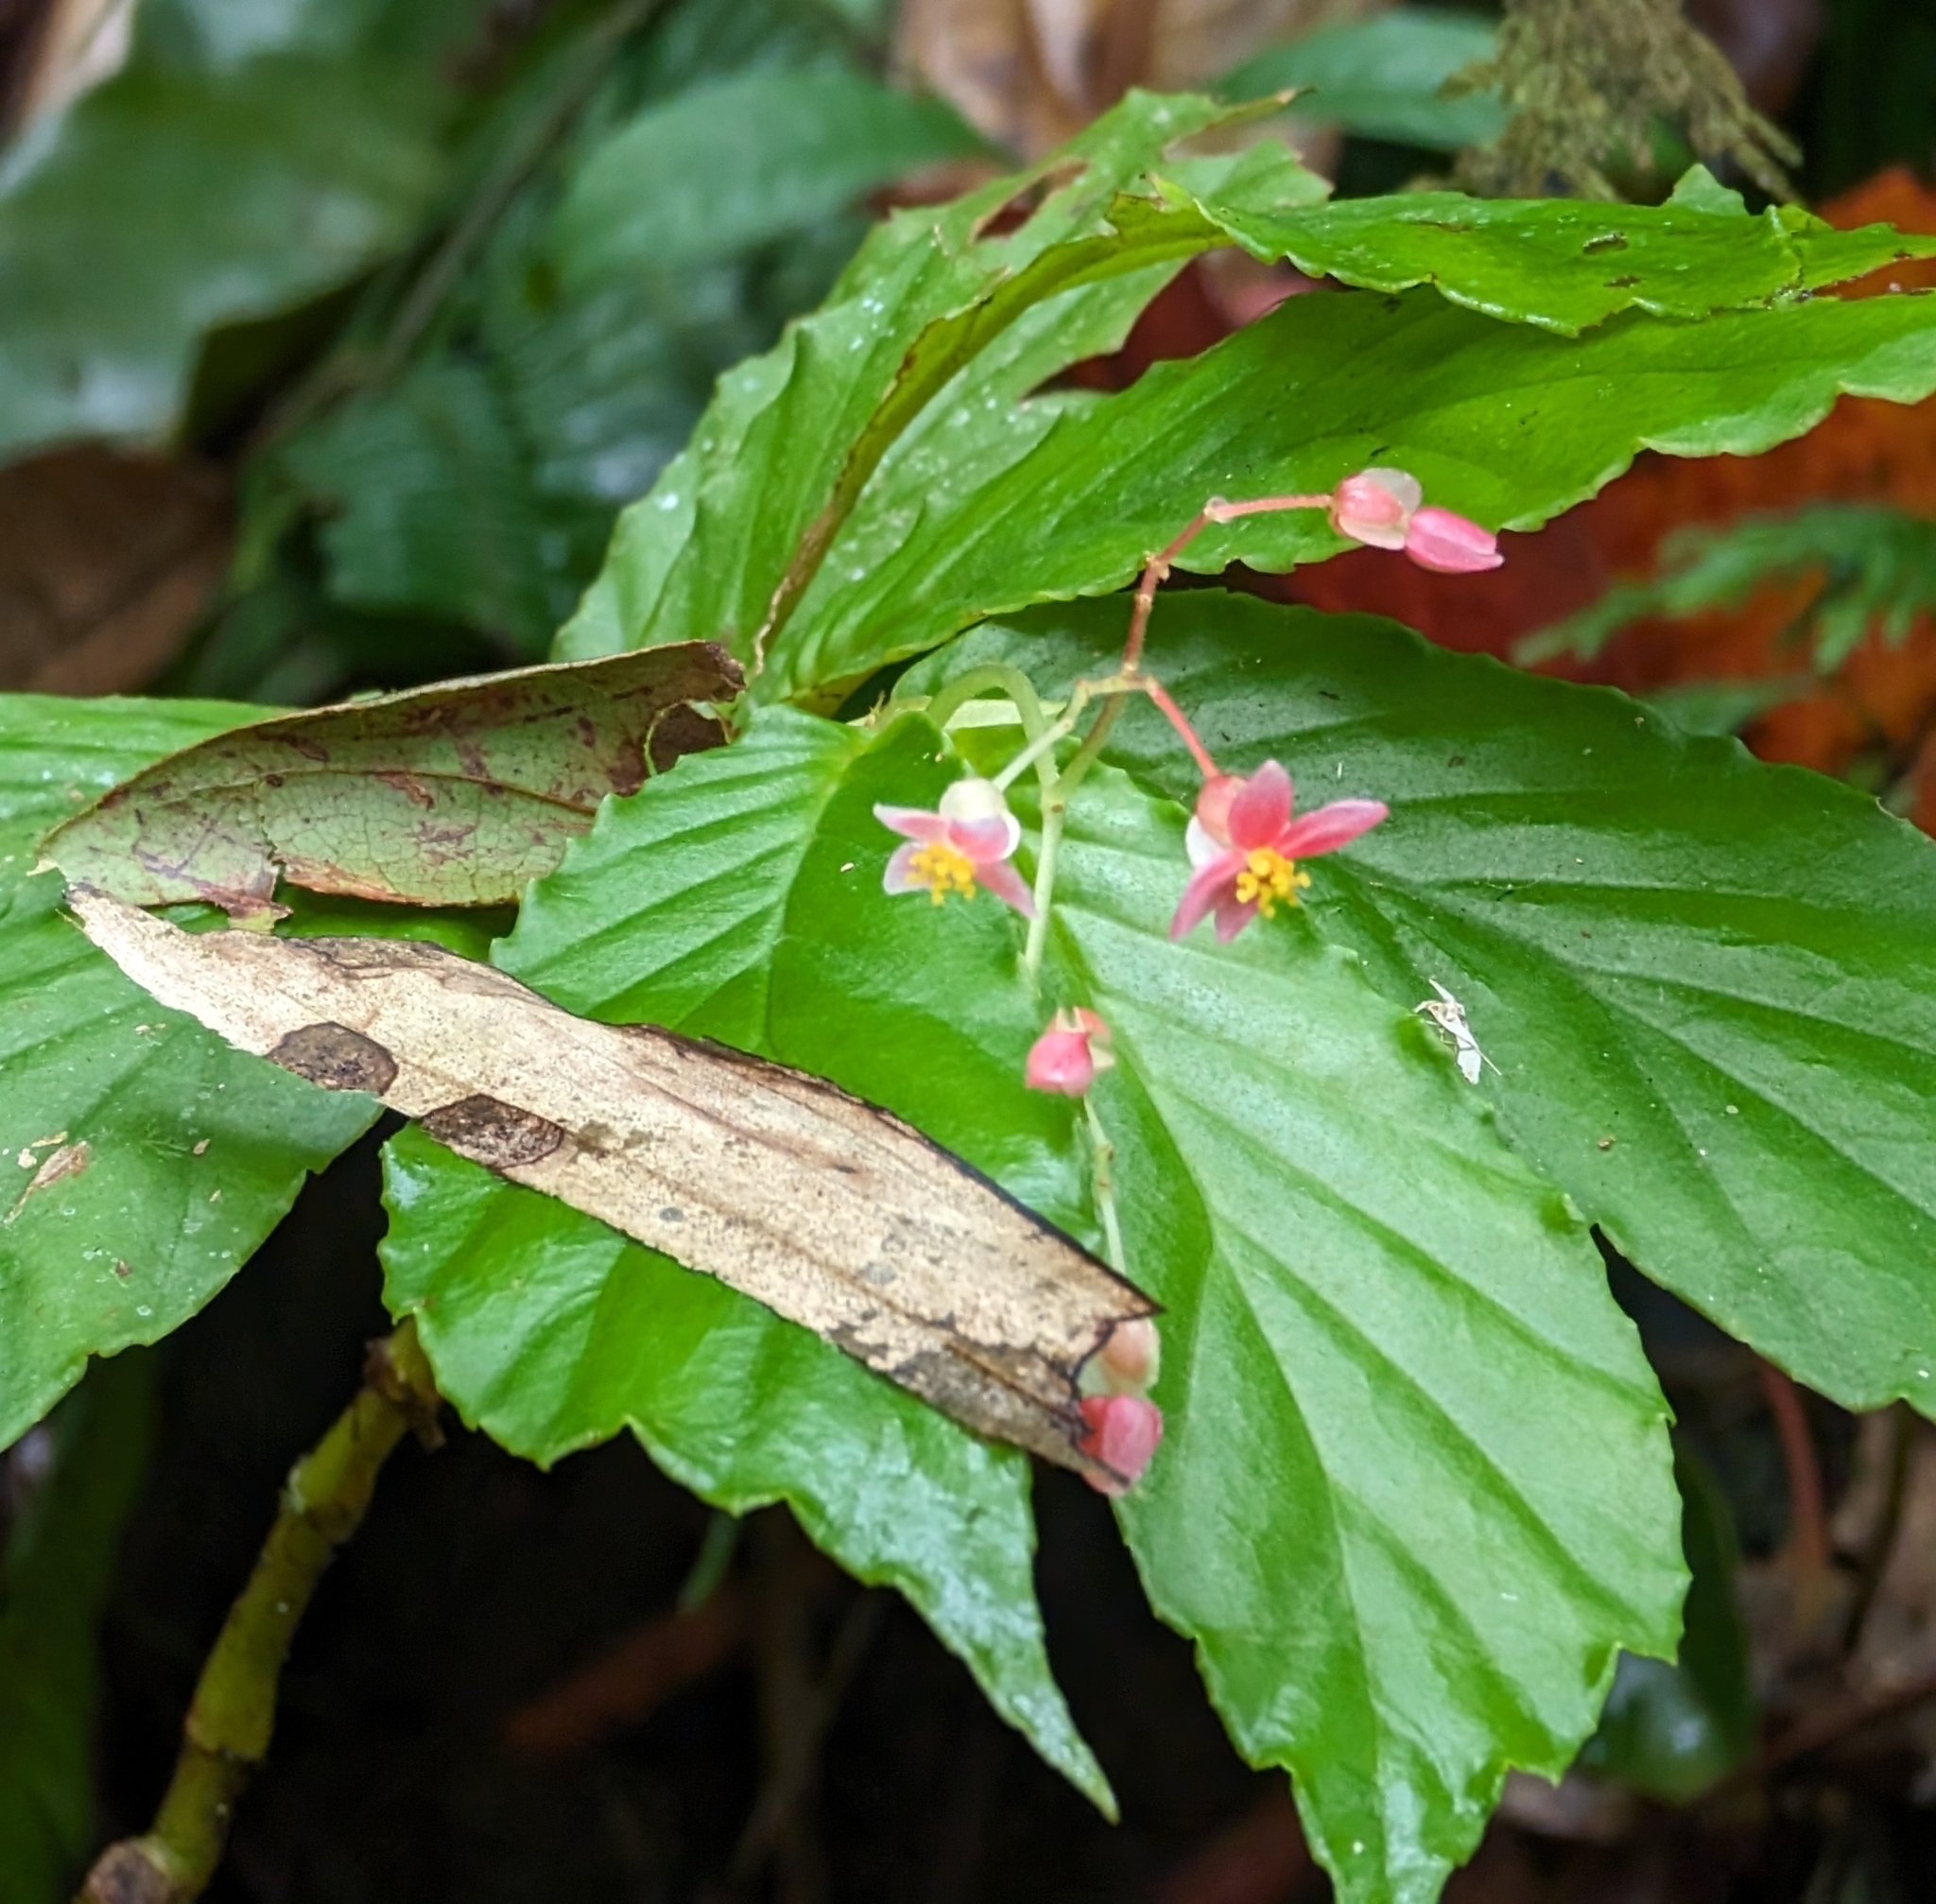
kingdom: Plantae
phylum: Tracheophyta
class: Magnoliopsida
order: Cucurbitales
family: Begoniaceae
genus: Begonia
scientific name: Begonia tonduzii
